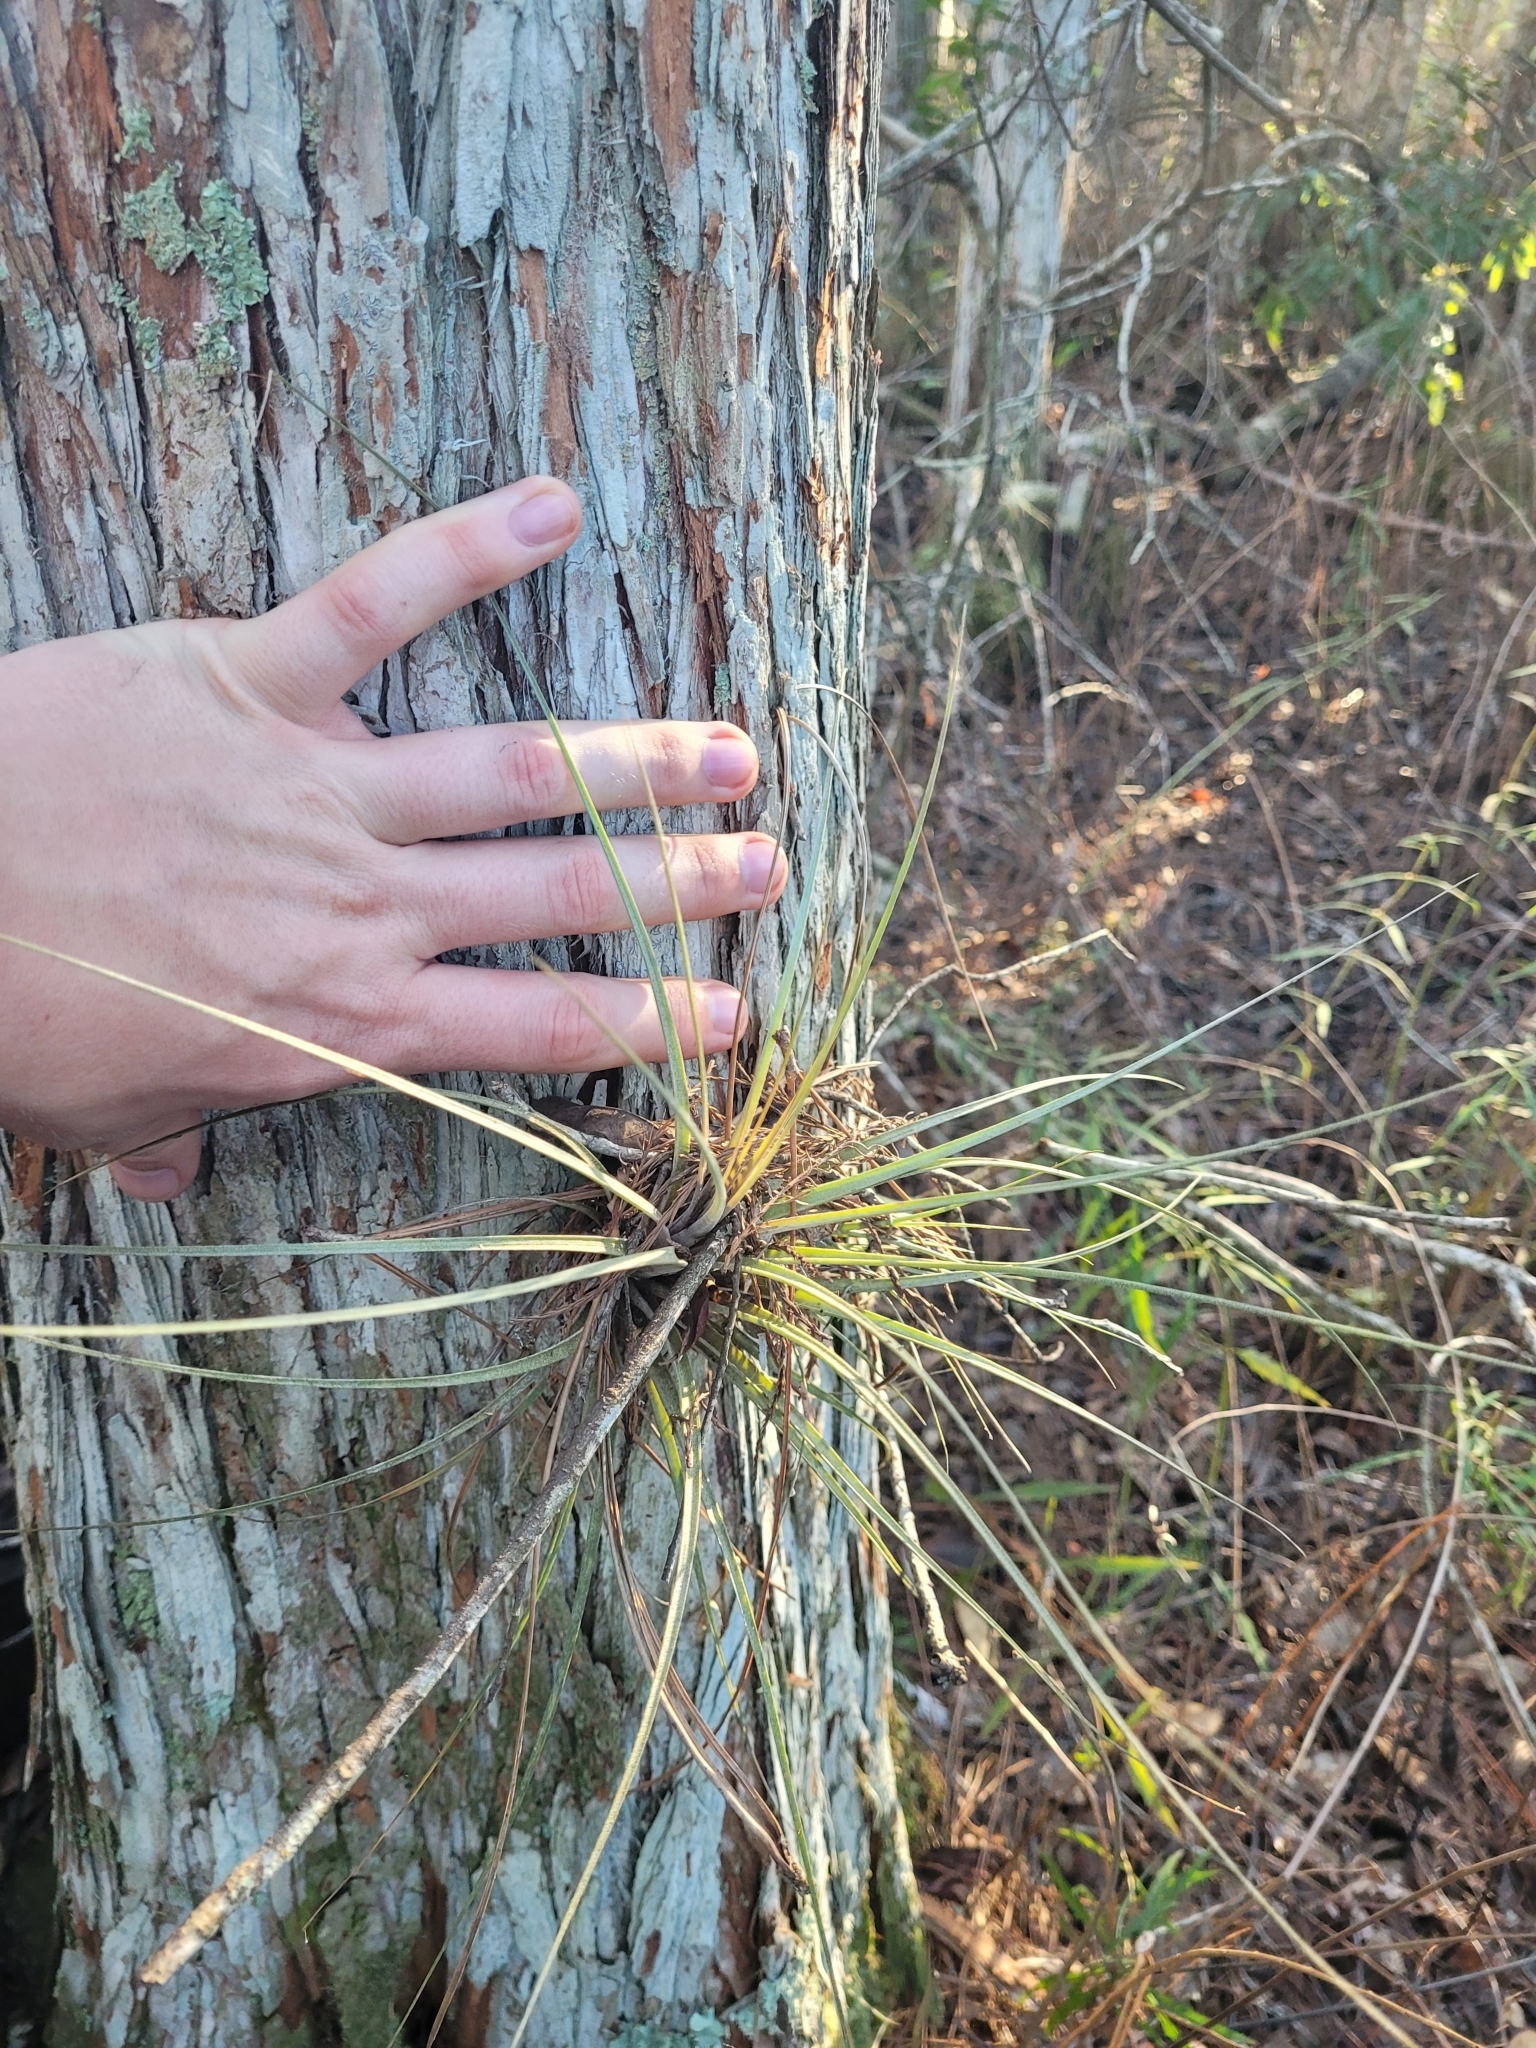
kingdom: Plantae
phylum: Tracheophyta
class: Liliopsida
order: Poales
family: Bromeliaceae
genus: Tillandsia
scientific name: Tillandsia setacea
